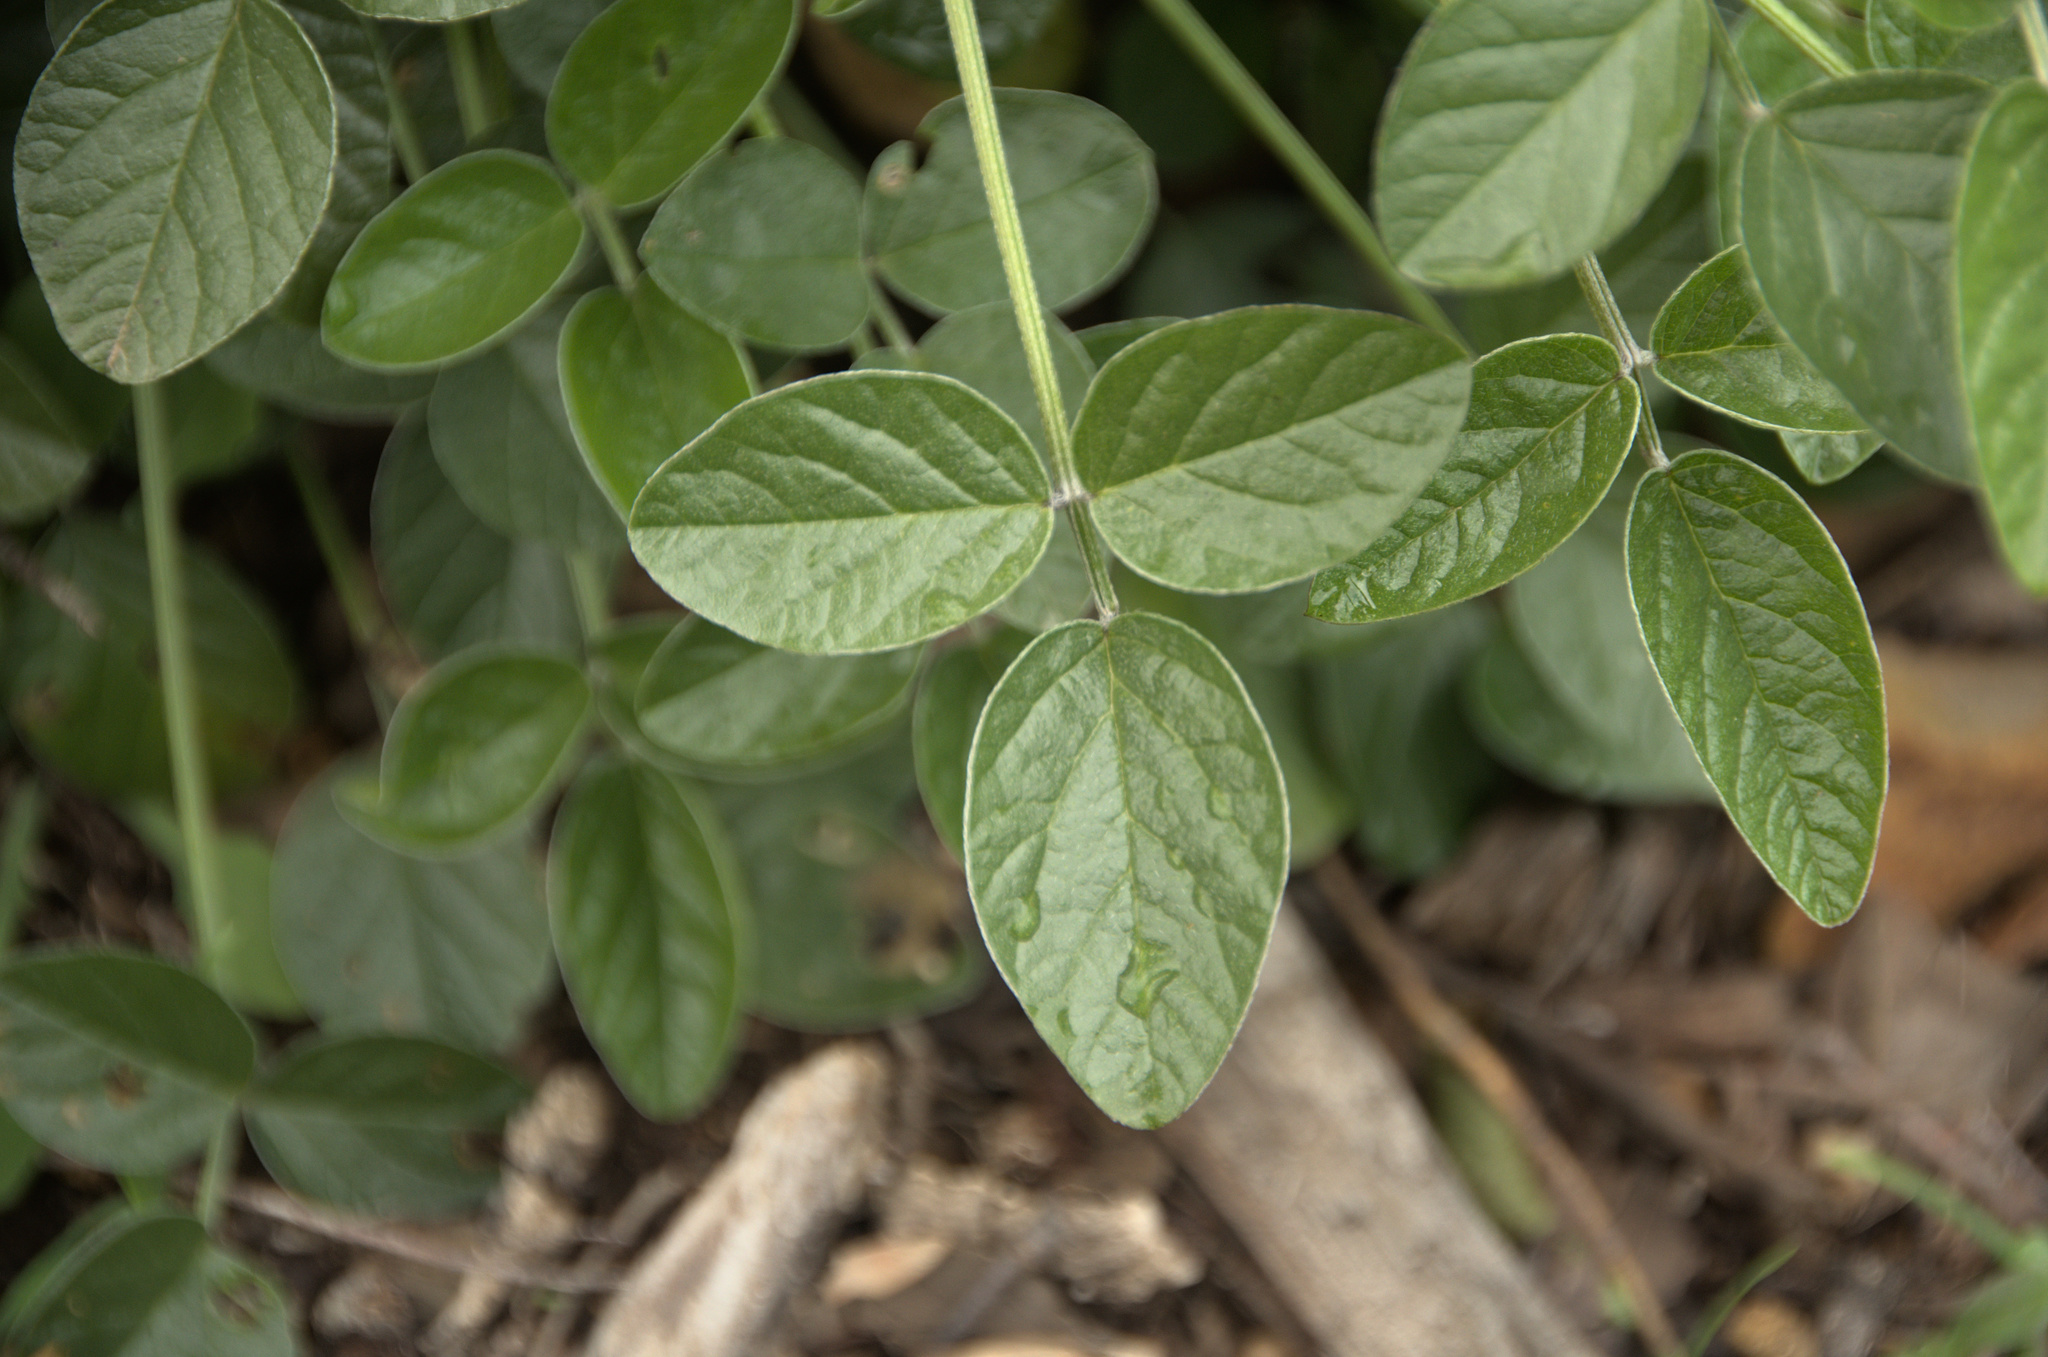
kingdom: Plantae
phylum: Tracheophyta
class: Magnoliopsida
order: Fabales
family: Fabaceae
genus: Bituminaria
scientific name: Bituminaria bituminosa
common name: Arabian pea
